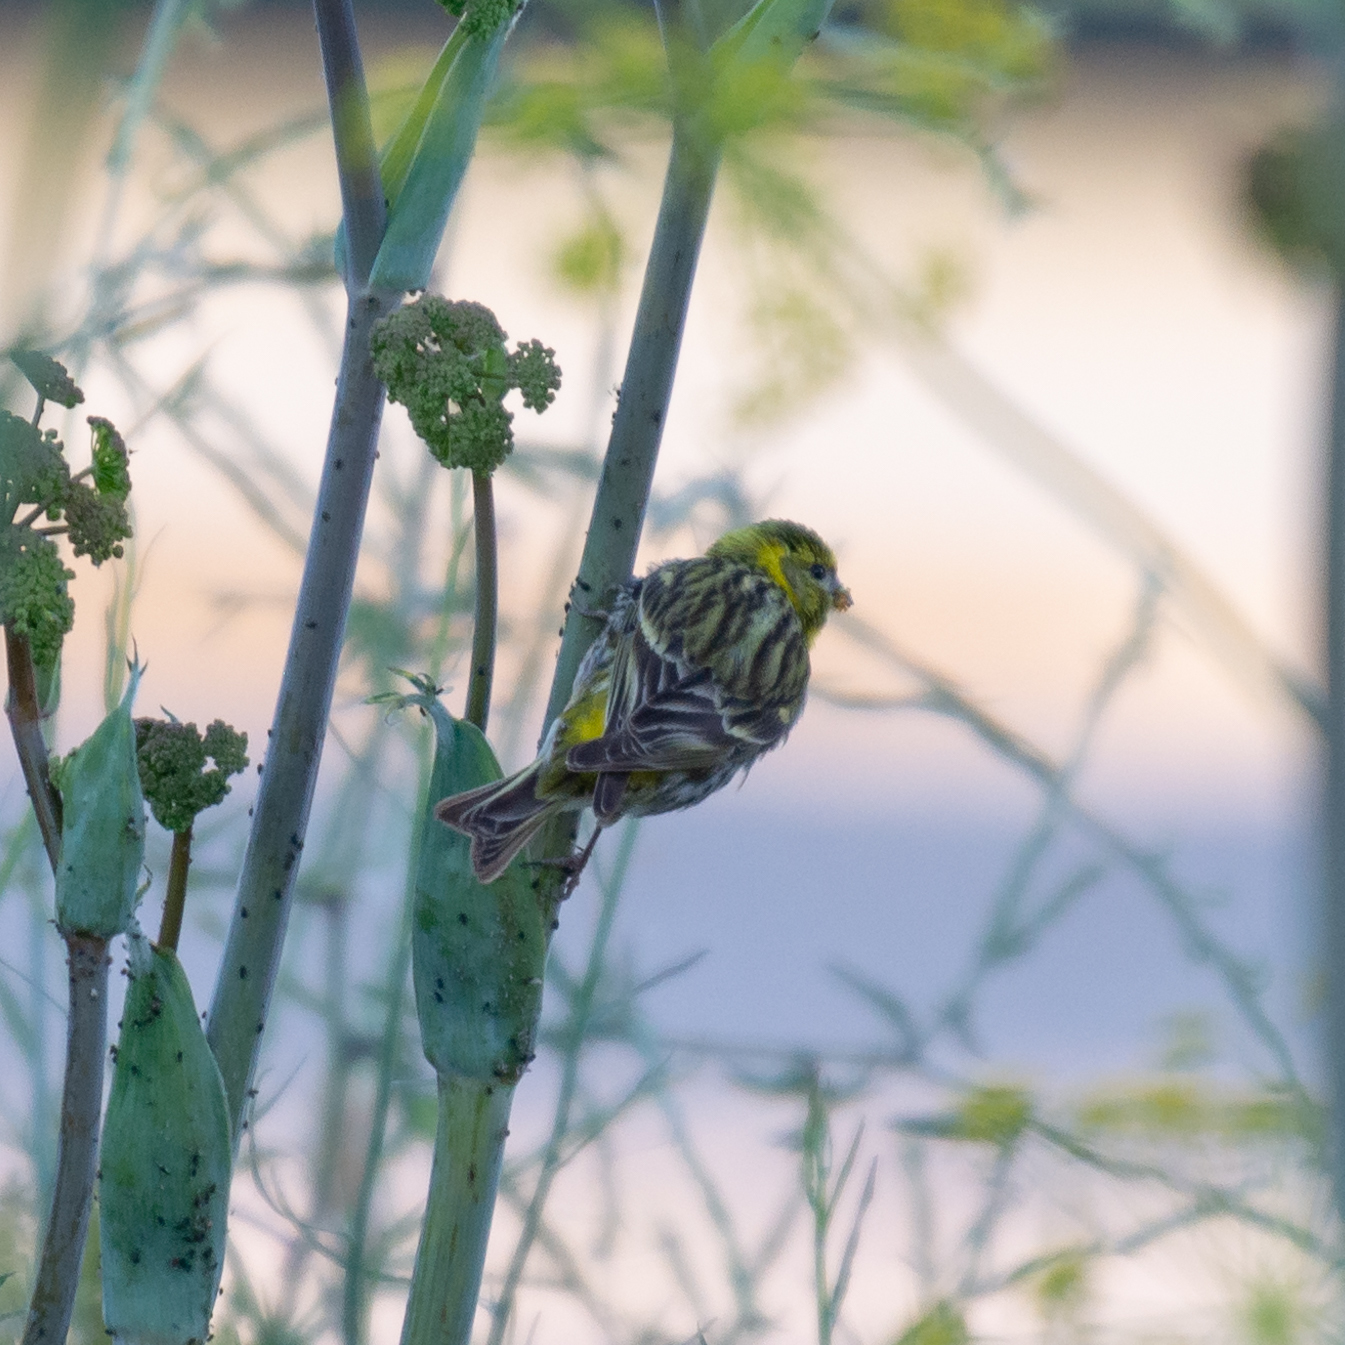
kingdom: Animalia
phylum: Chordata
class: Aves
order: Passeriformes
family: Fringillidae
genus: Serinus
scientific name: Serinus serinus
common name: European serin
